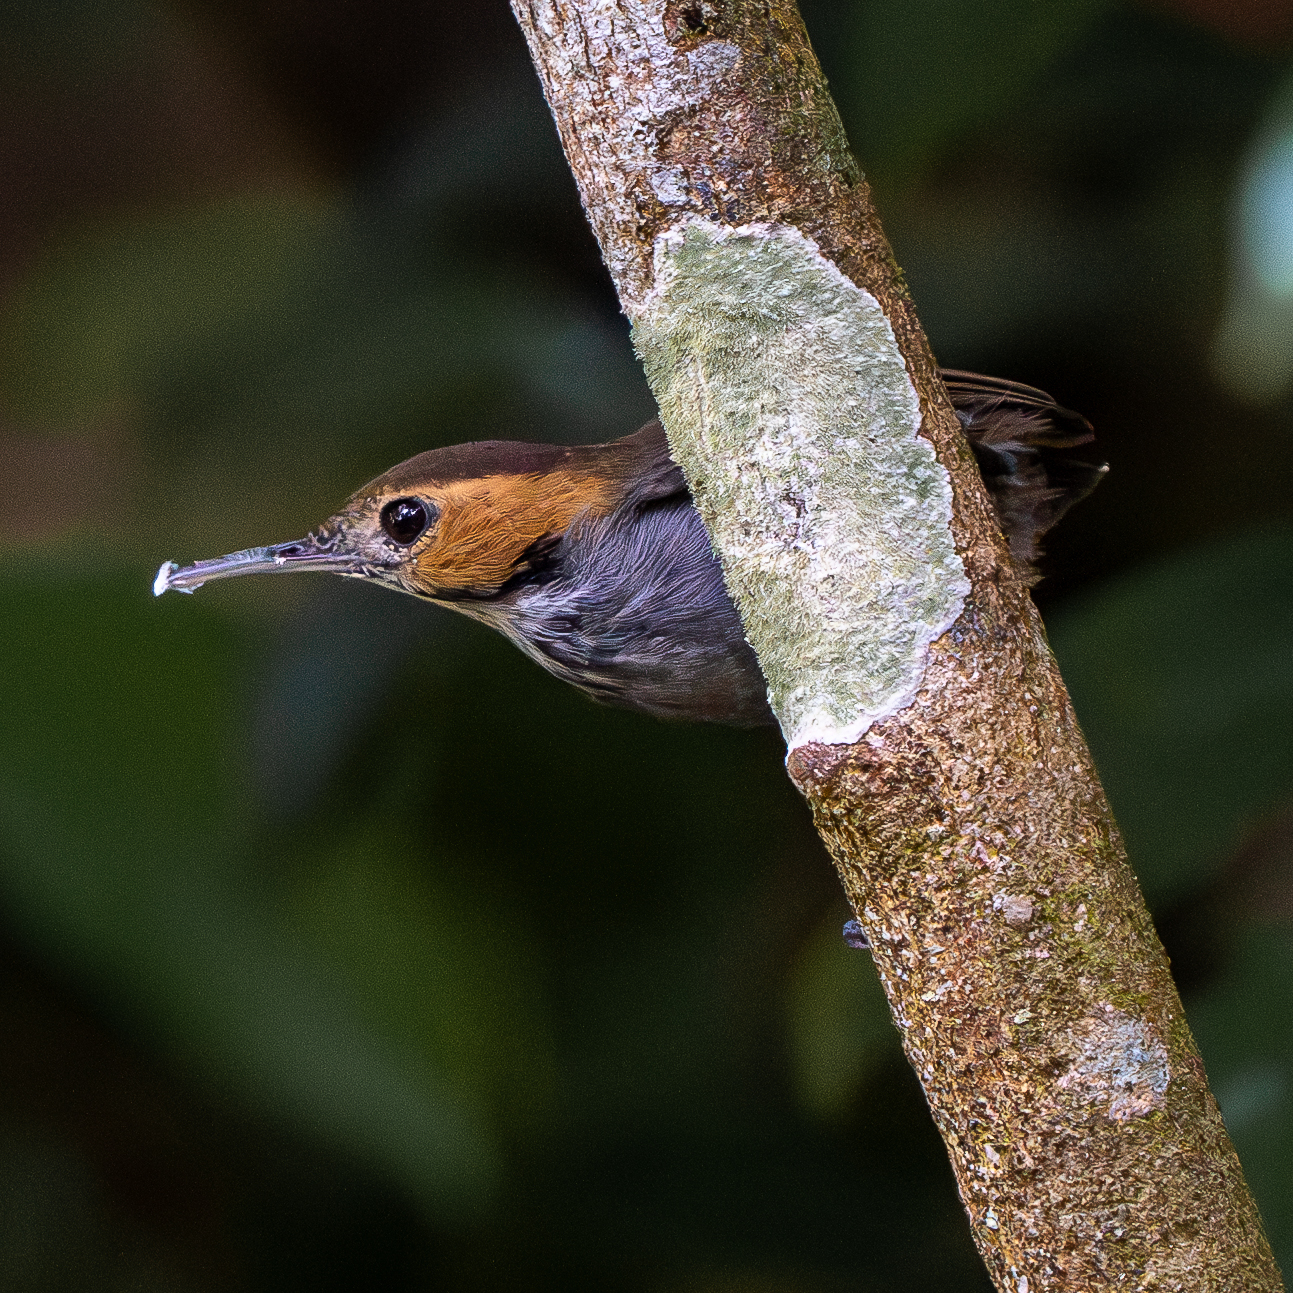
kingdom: Animalia
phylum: Chordata
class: Aves
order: Passeriformes
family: Polioptilidae
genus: Microbates
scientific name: Microbates cinereiventris
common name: Tawny-faced gnatwren
